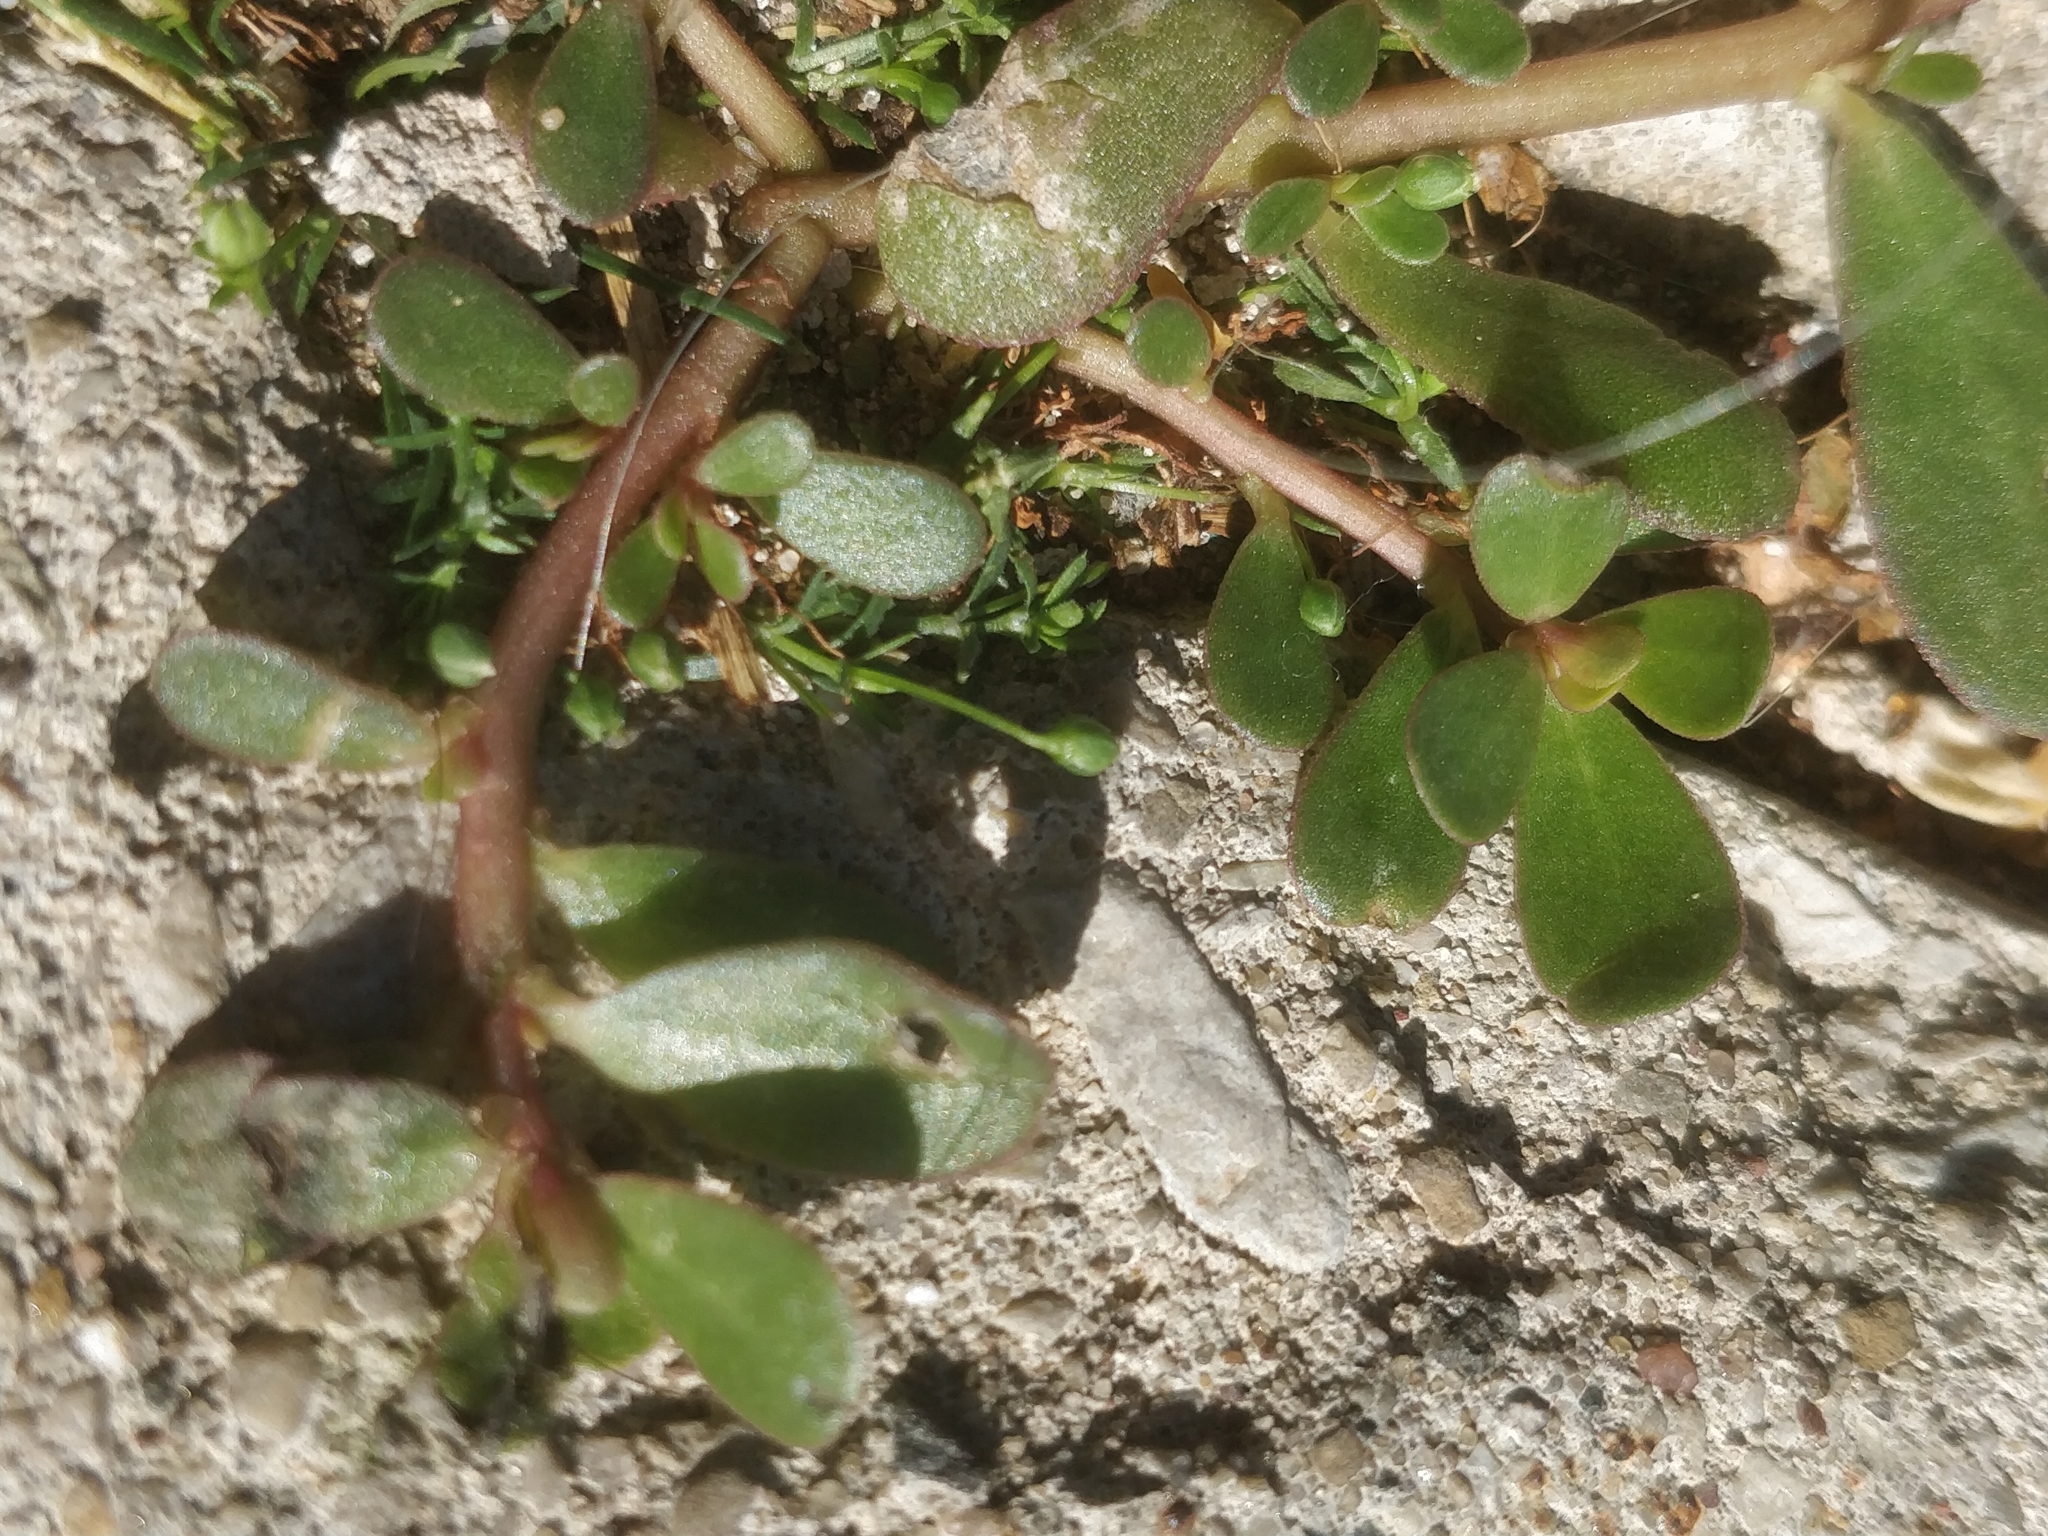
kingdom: Plantae
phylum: Tracheophyta
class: Magnoliopsida
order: Caryophyllales
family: Portulacaceae
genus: Portulaca
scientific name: Portulaca oleracea
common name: Common purslane
